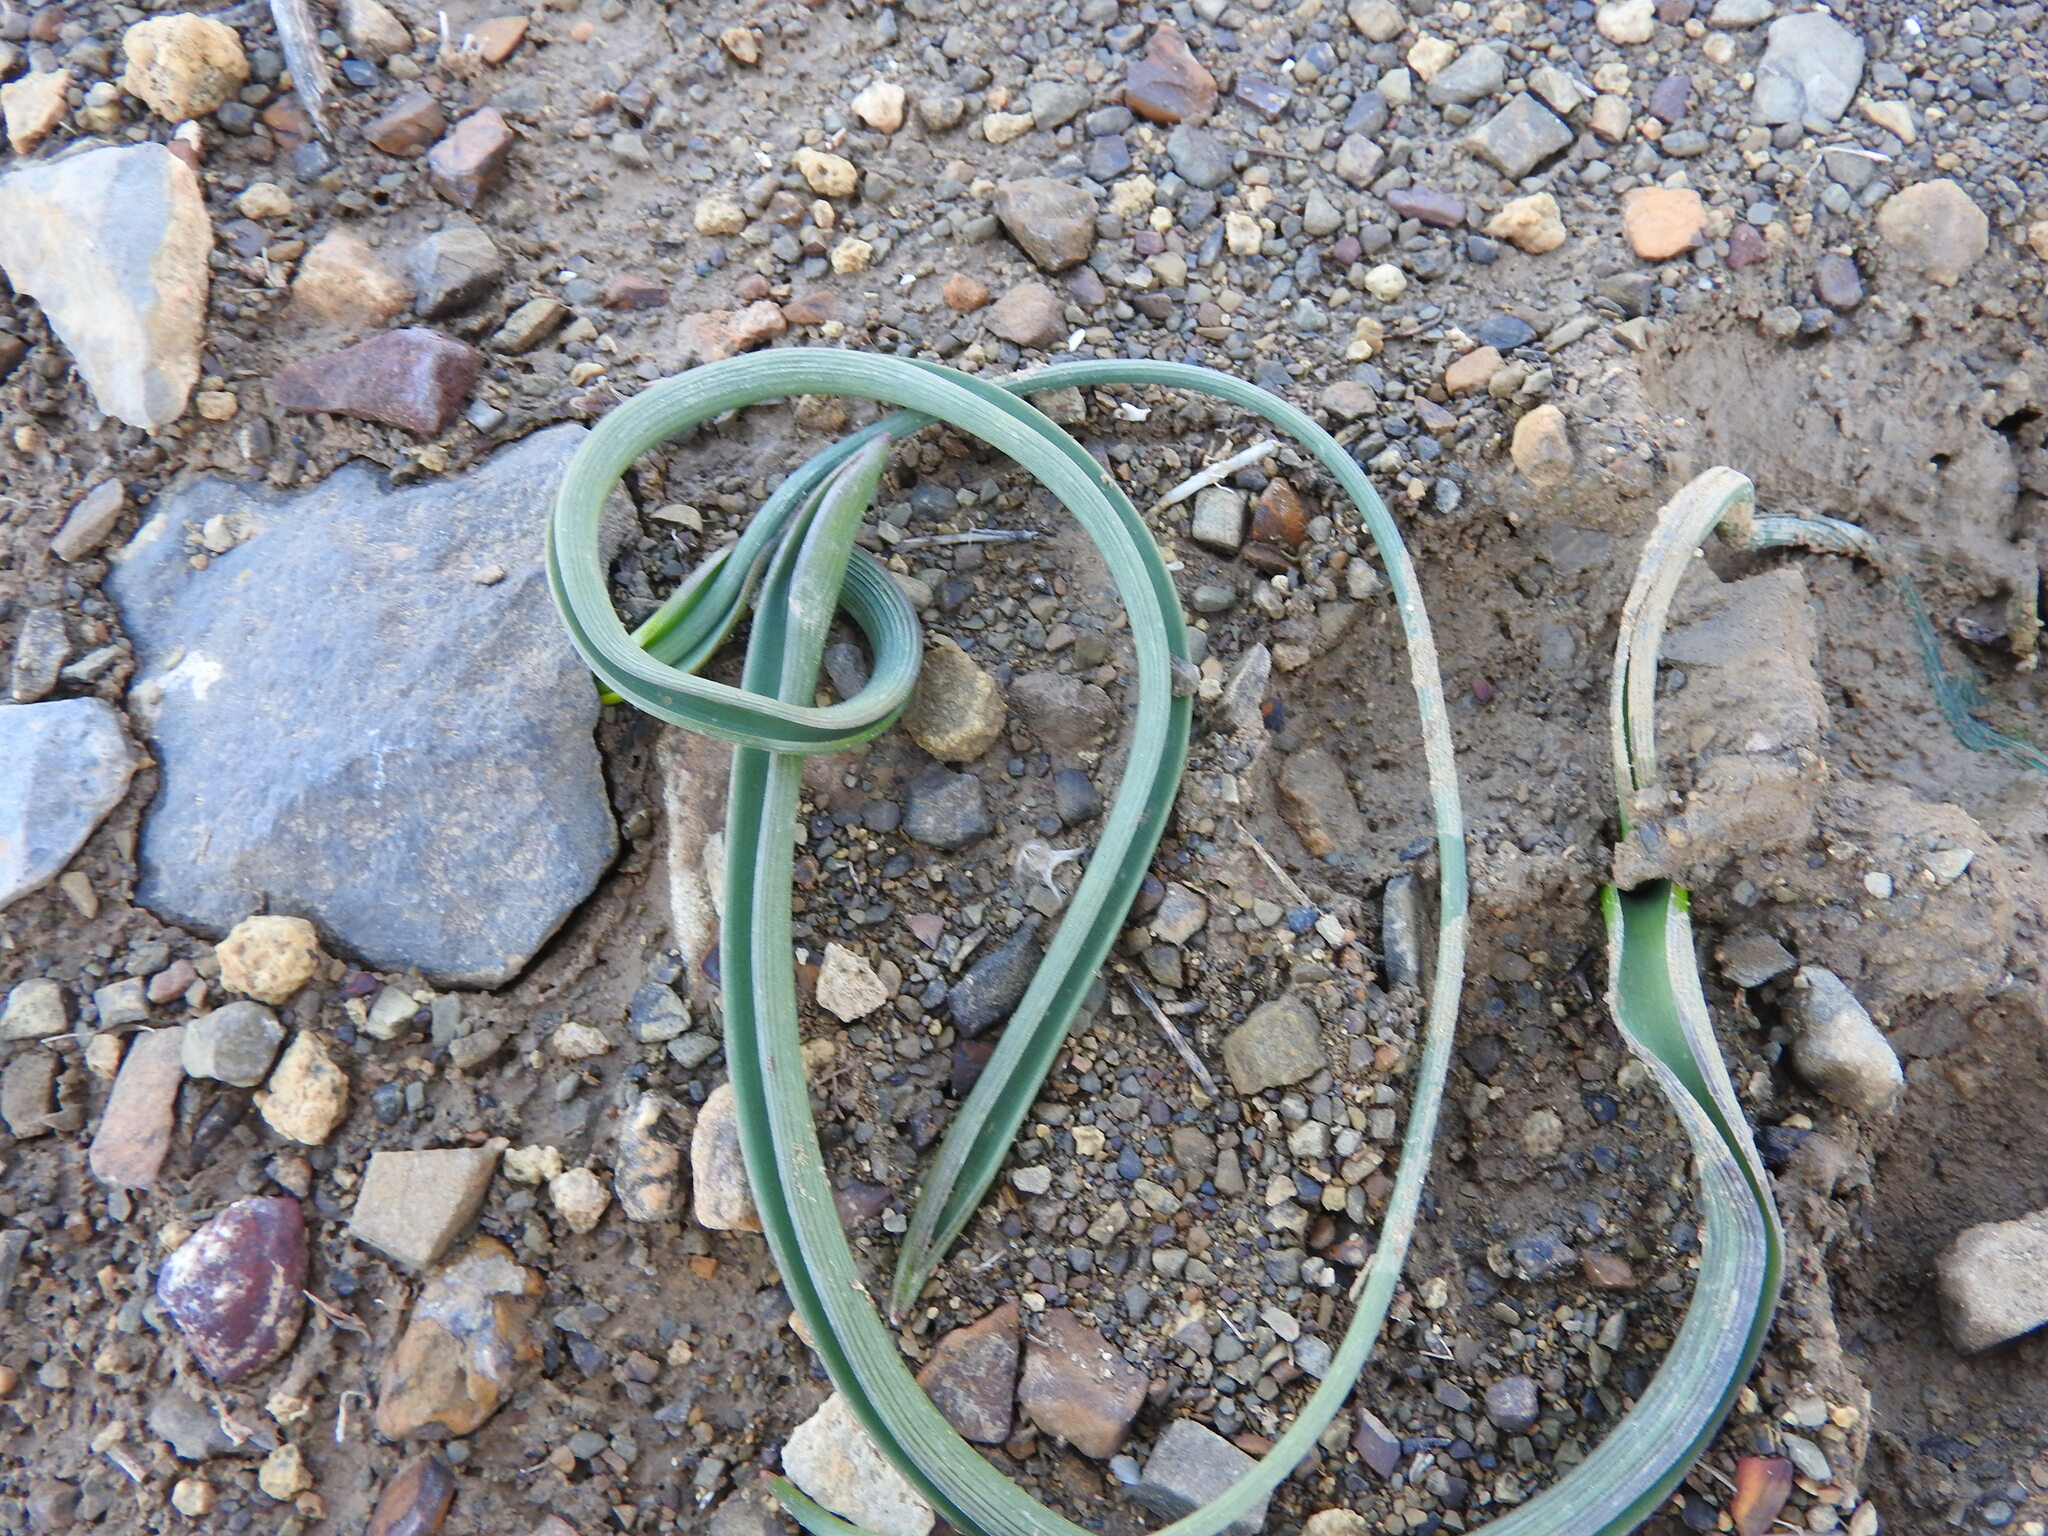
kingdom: Plantae
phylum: Tracheophyta
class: Liliopsida
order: Asparagales
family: Asparagaceae
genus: Muscari
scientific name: Muscari comosum
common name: Tassel hyacinth
